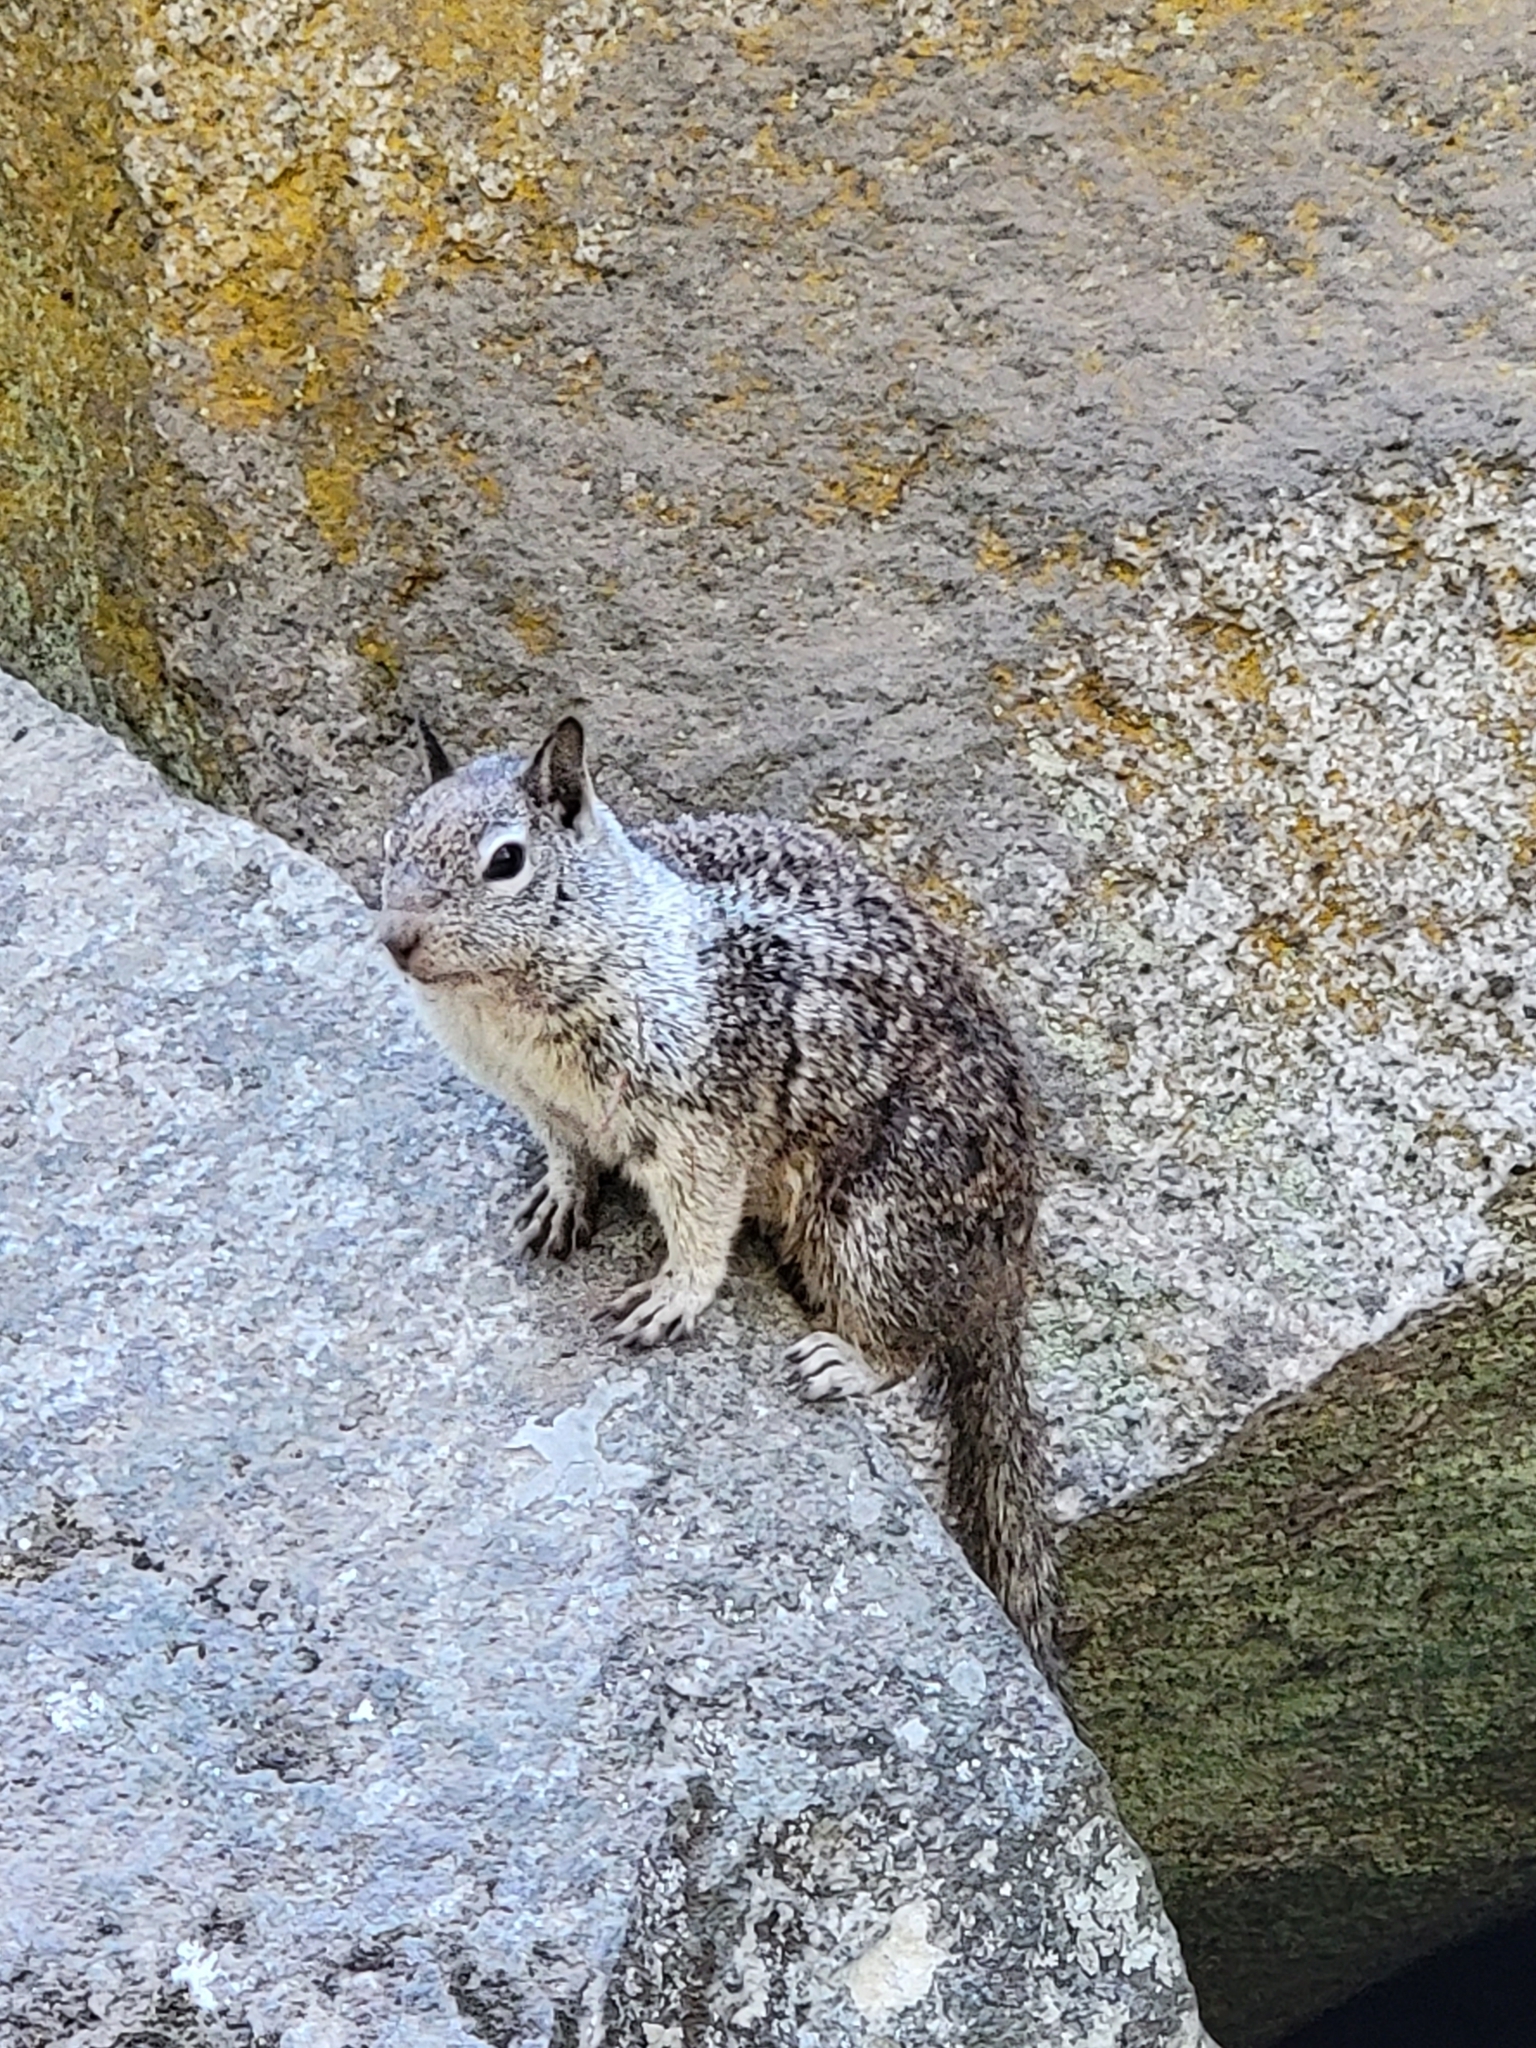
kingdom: Animalia
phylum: Chordata
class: Mammalia
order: Rodentia
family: Sciuridae
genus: Otospermophilus
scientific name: Otospermophilus beecheyi
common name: California ground squirrel
